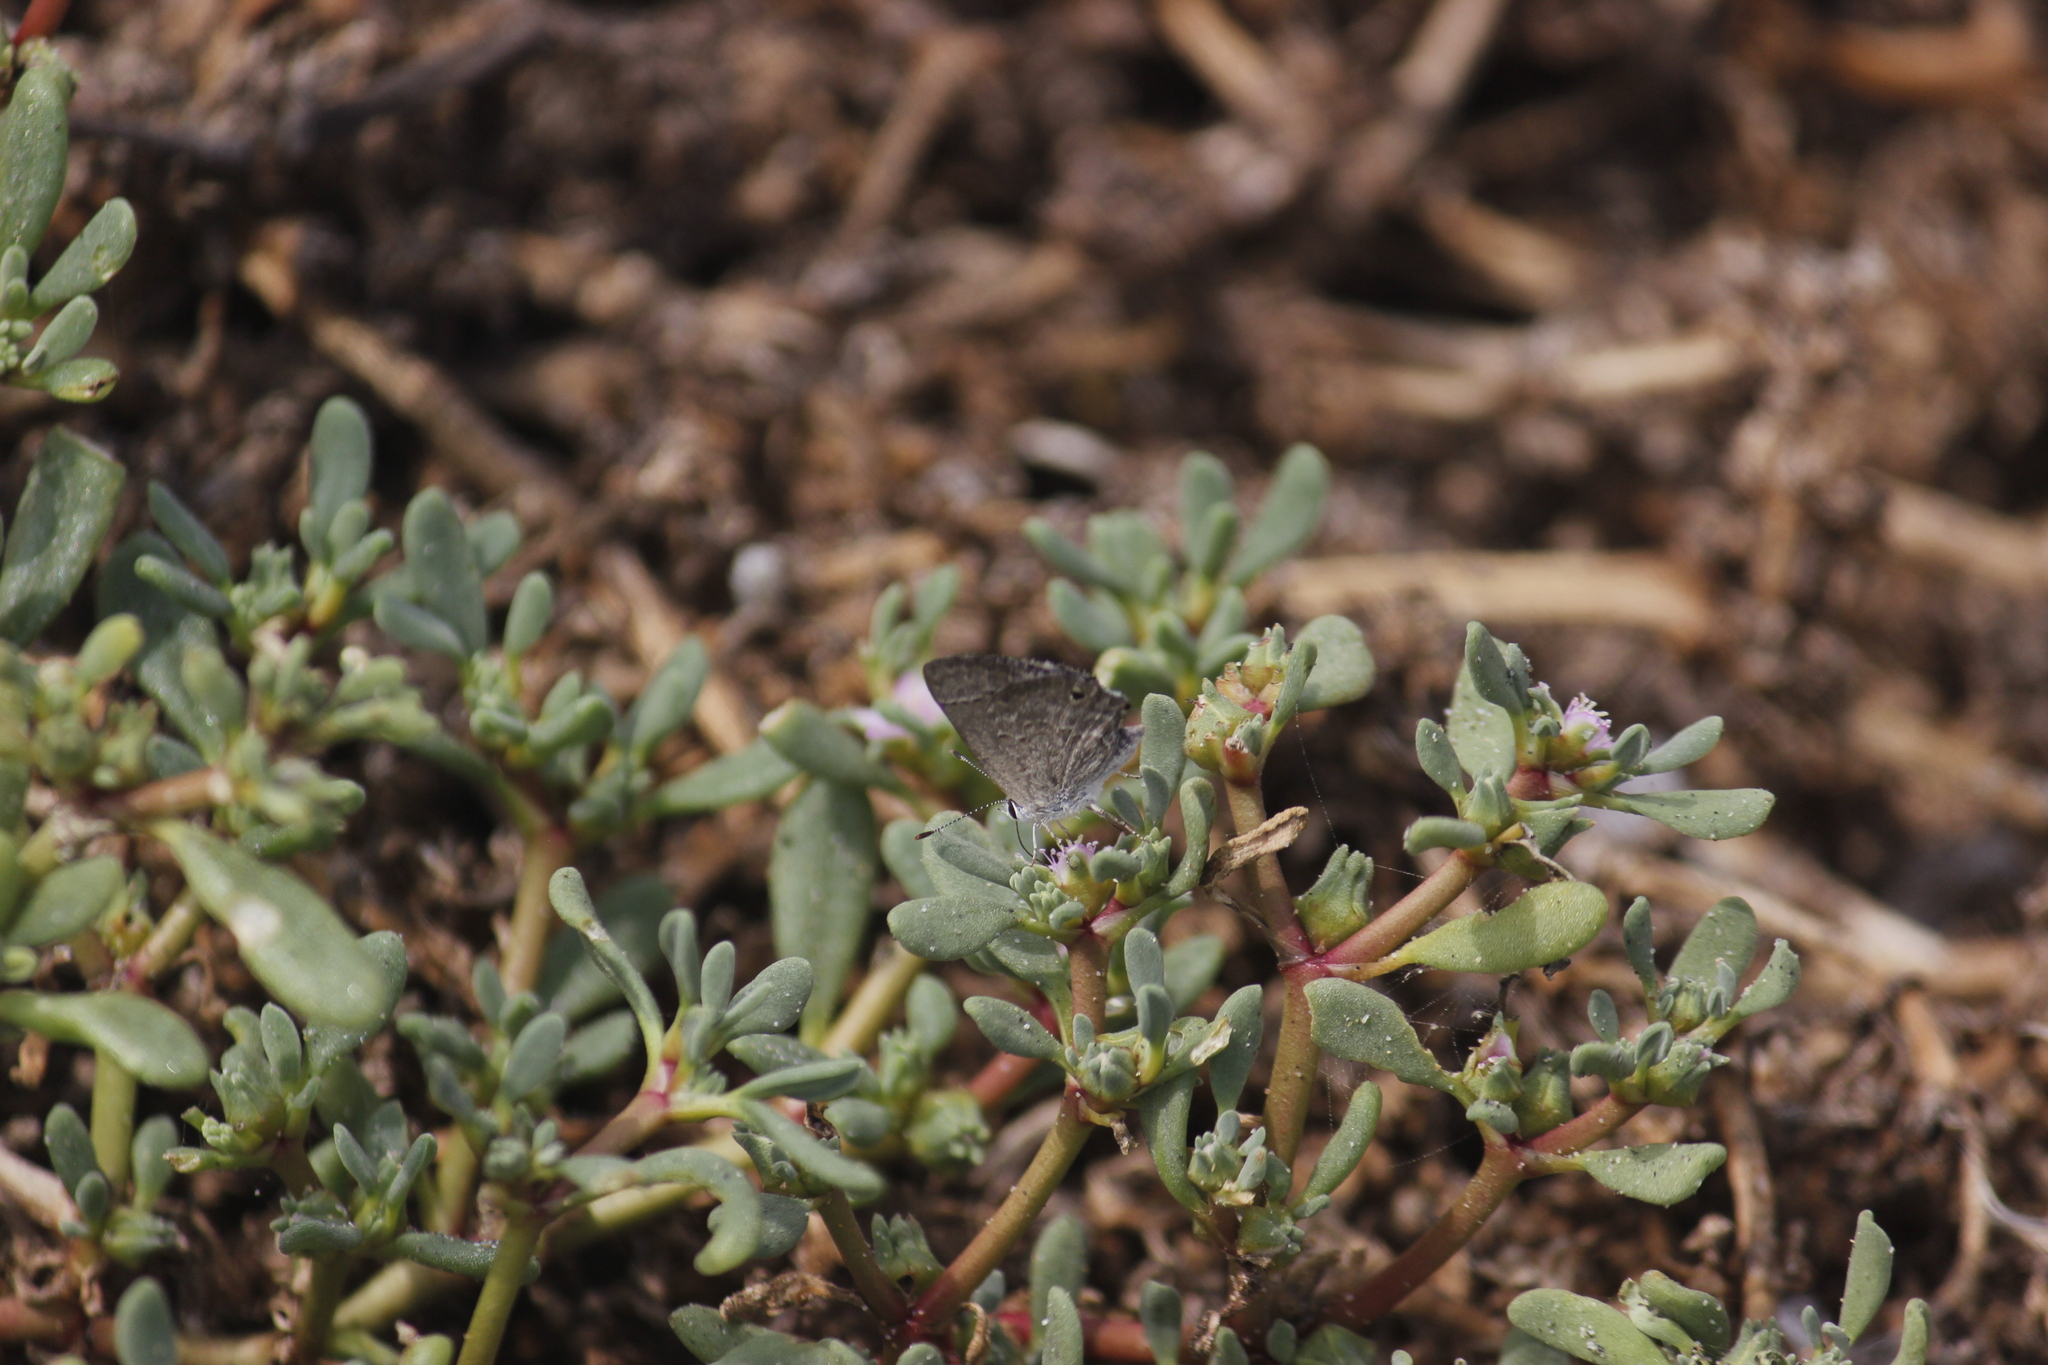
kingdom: Animalia
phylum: Arthropoda
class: Insecta
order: Lepidoptera
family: Lycaenidae
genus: Strymon
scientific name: Strymon bubastus
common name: Bubastes hairstreak
